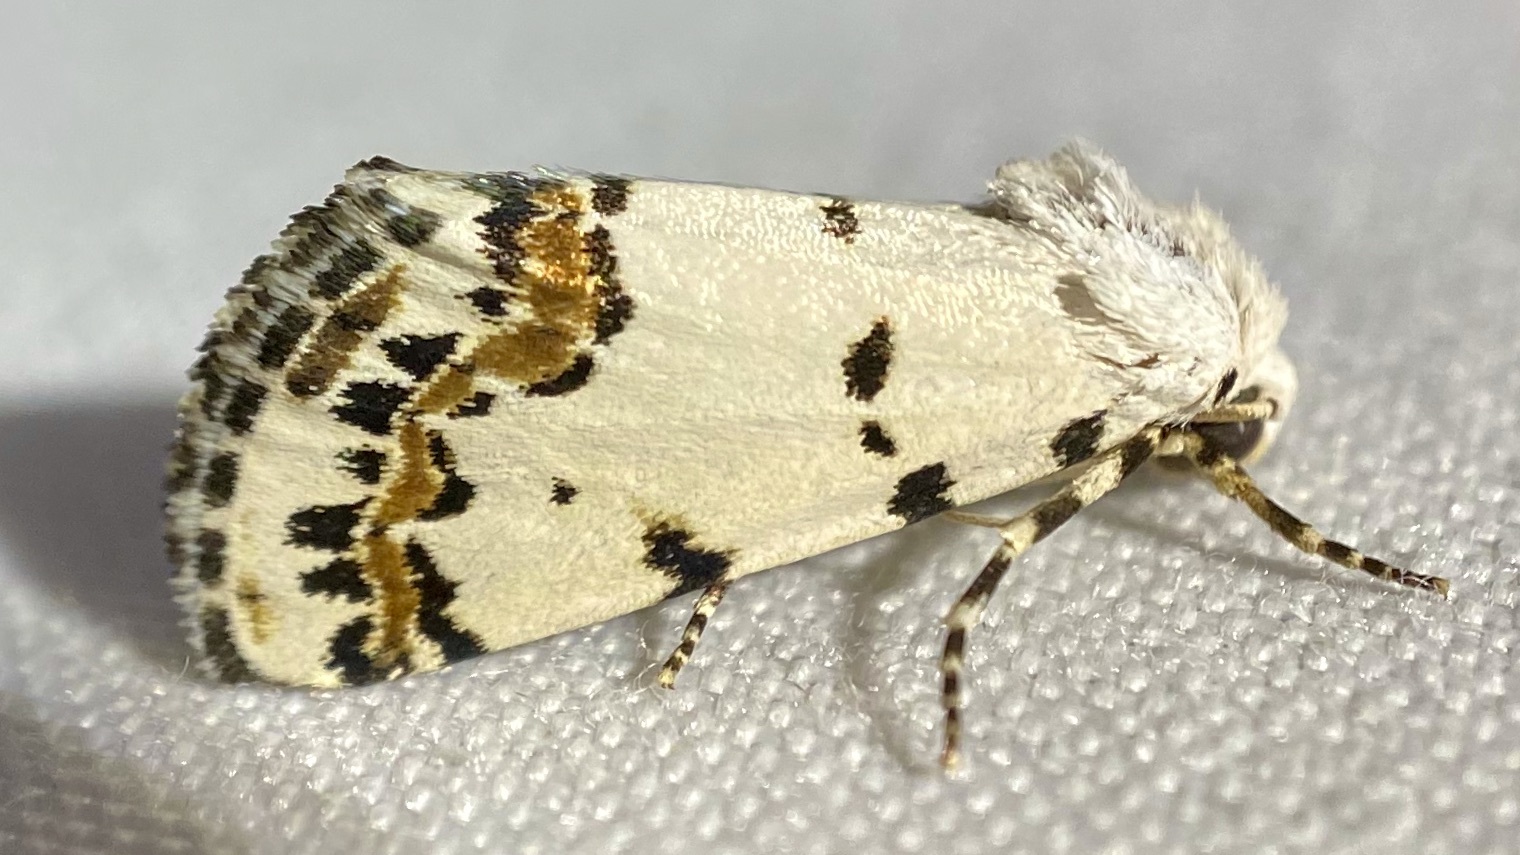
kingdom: Animalia
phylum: Arthropoda
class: Insecta
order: Lepidoptera
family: Noctuidae
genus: Grotella
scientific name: Grotella tricolor
